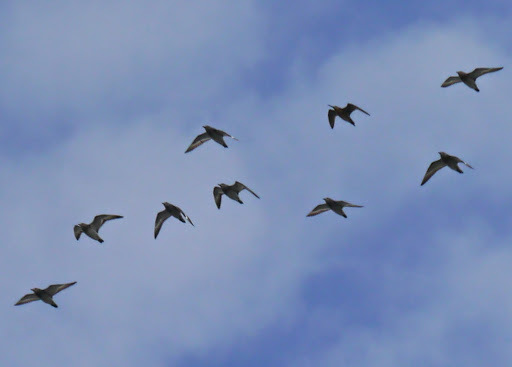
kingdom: Animalia
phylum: Chordata
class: Aves
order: Charadriiformes
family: Scolopacidae
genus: Calidris
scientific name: Calidris virgata
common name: Surfbird
